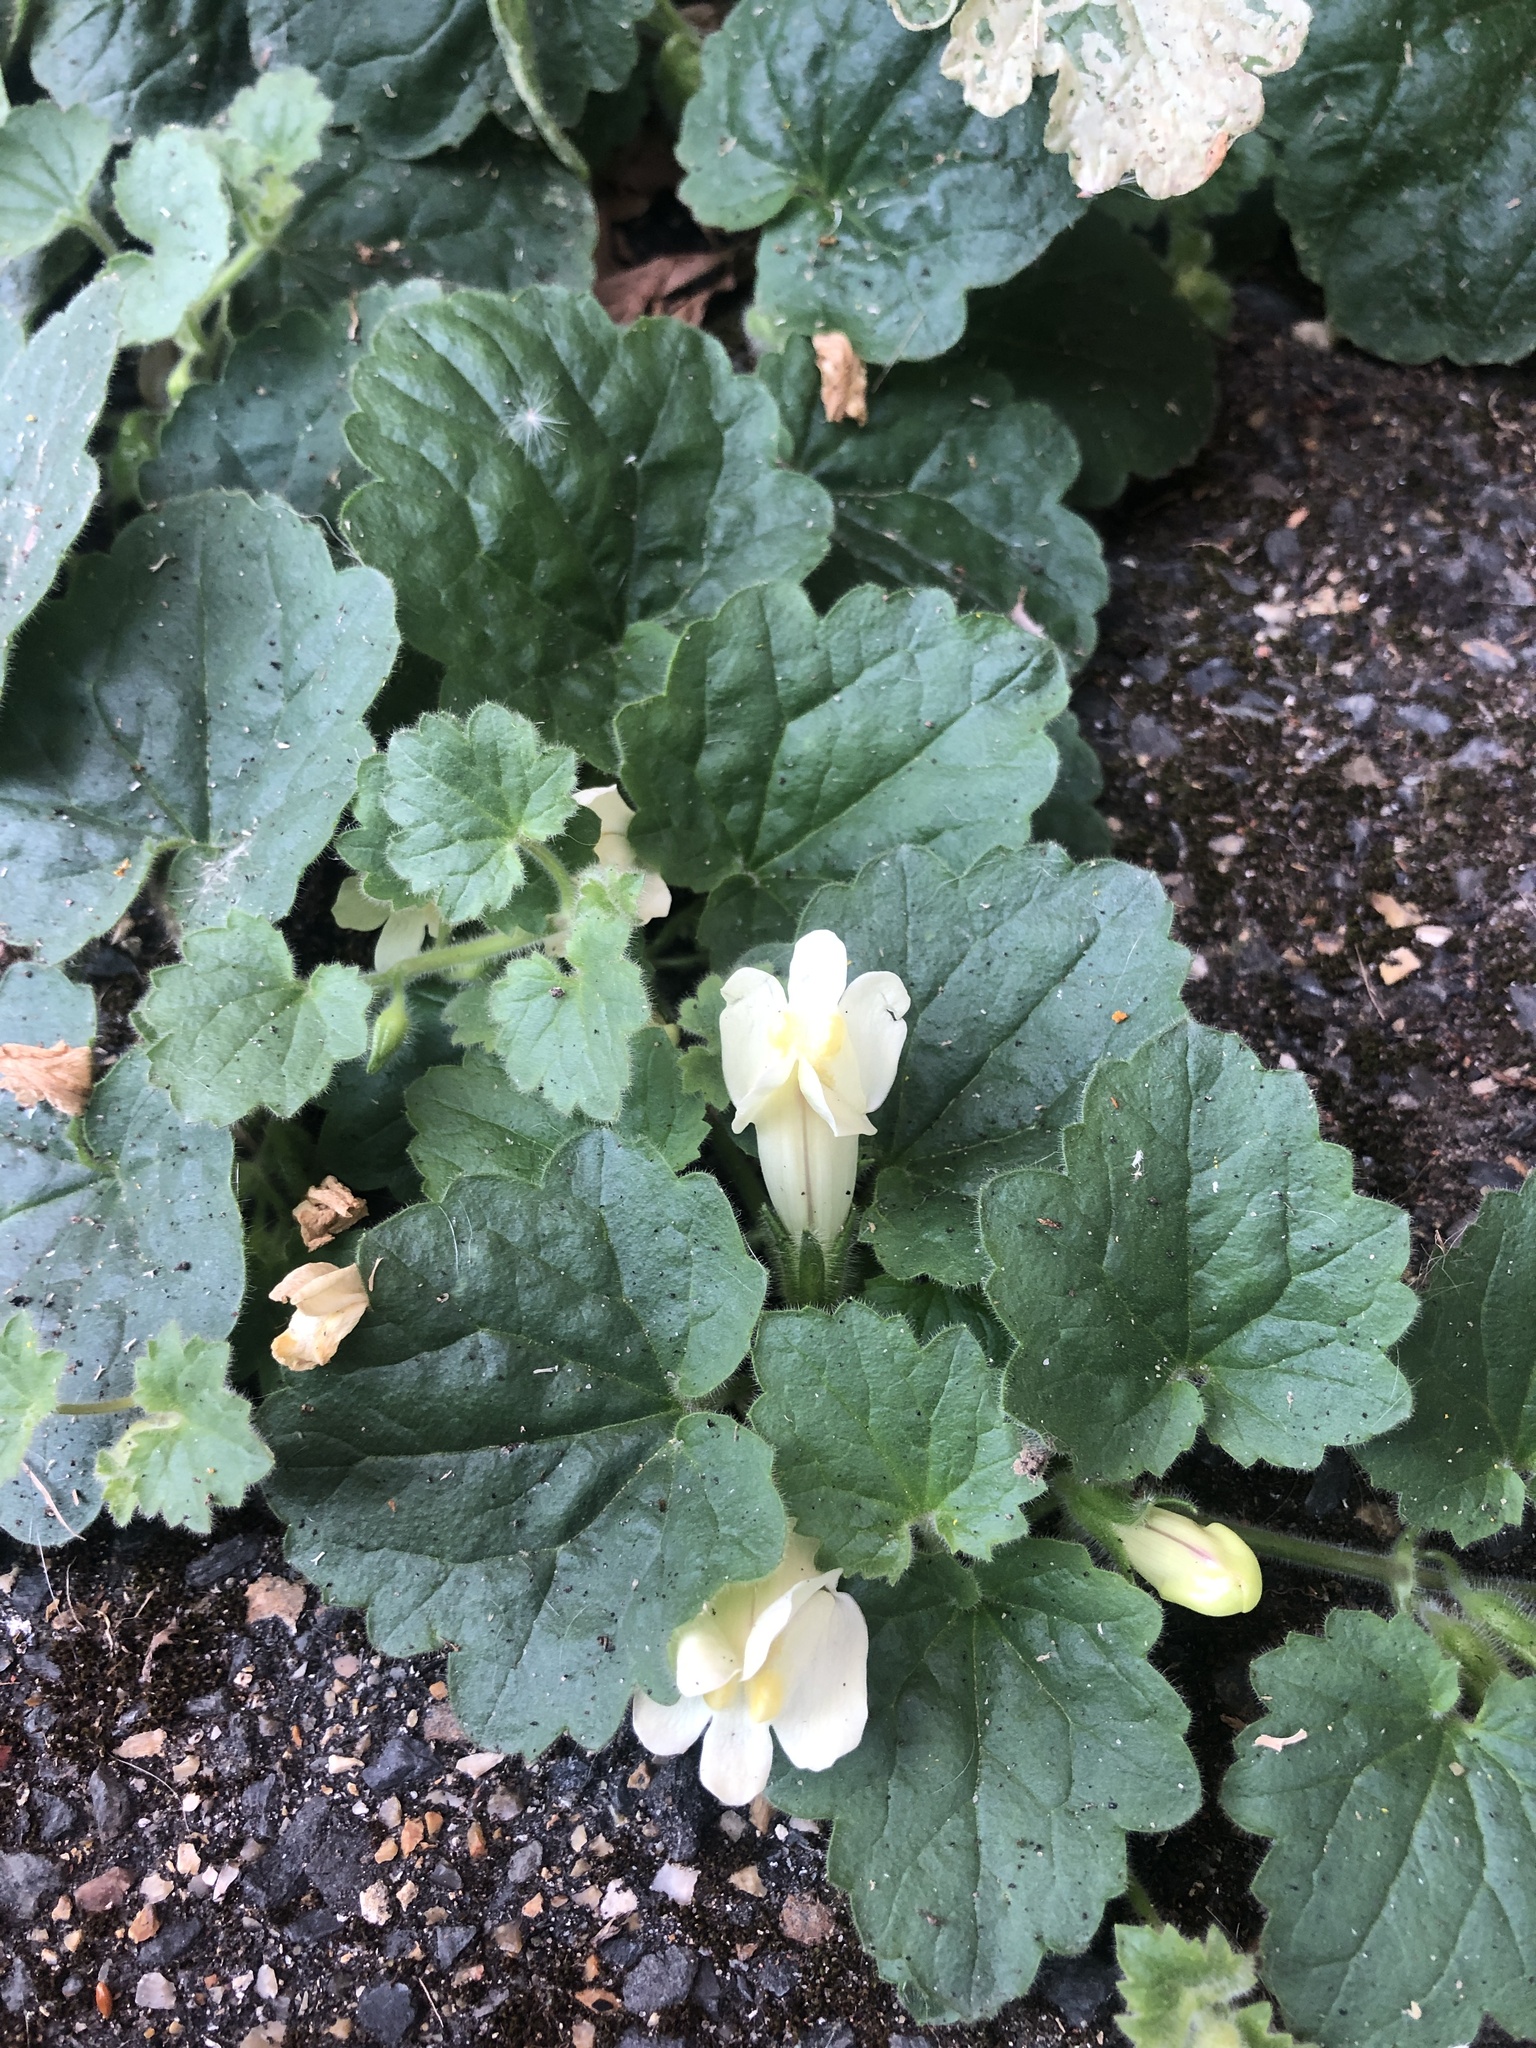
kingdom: Plantae
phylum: Tracheophyta
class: Magnoliopsida
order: Lamiales
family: Plantaginaceae
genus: Asarina
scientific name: Asarina procumbens
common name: Trailing snapdragon
